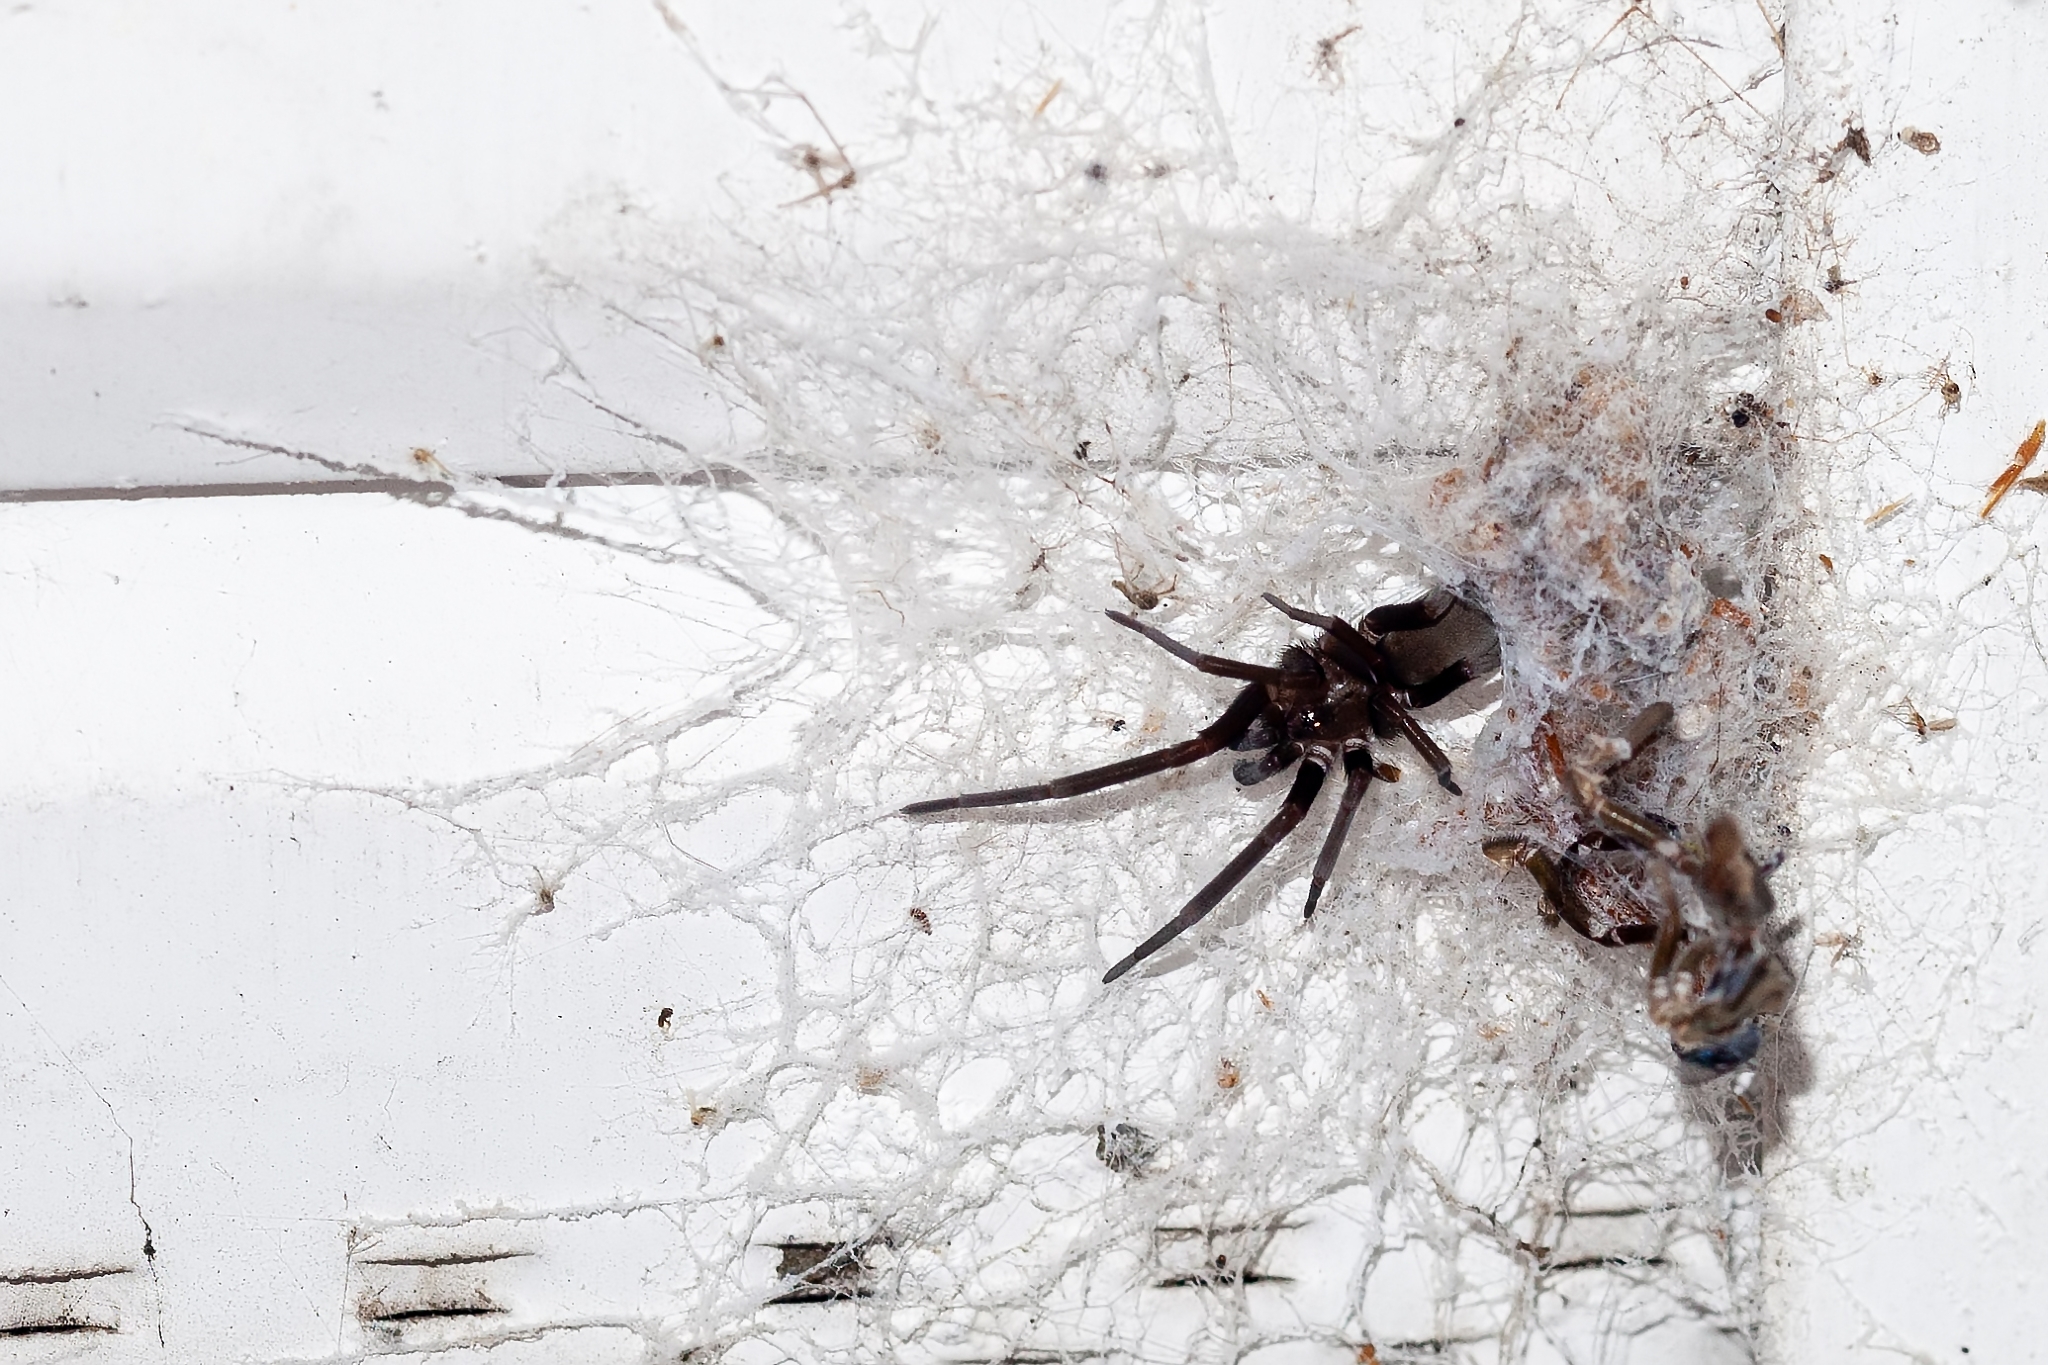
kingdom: Animalia
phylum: Arthropoda
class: Arachnida
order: Araneae
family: Filistatidae
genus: Kukulcania
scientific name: Kukulcania hibernalis
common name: Crevice weaver
